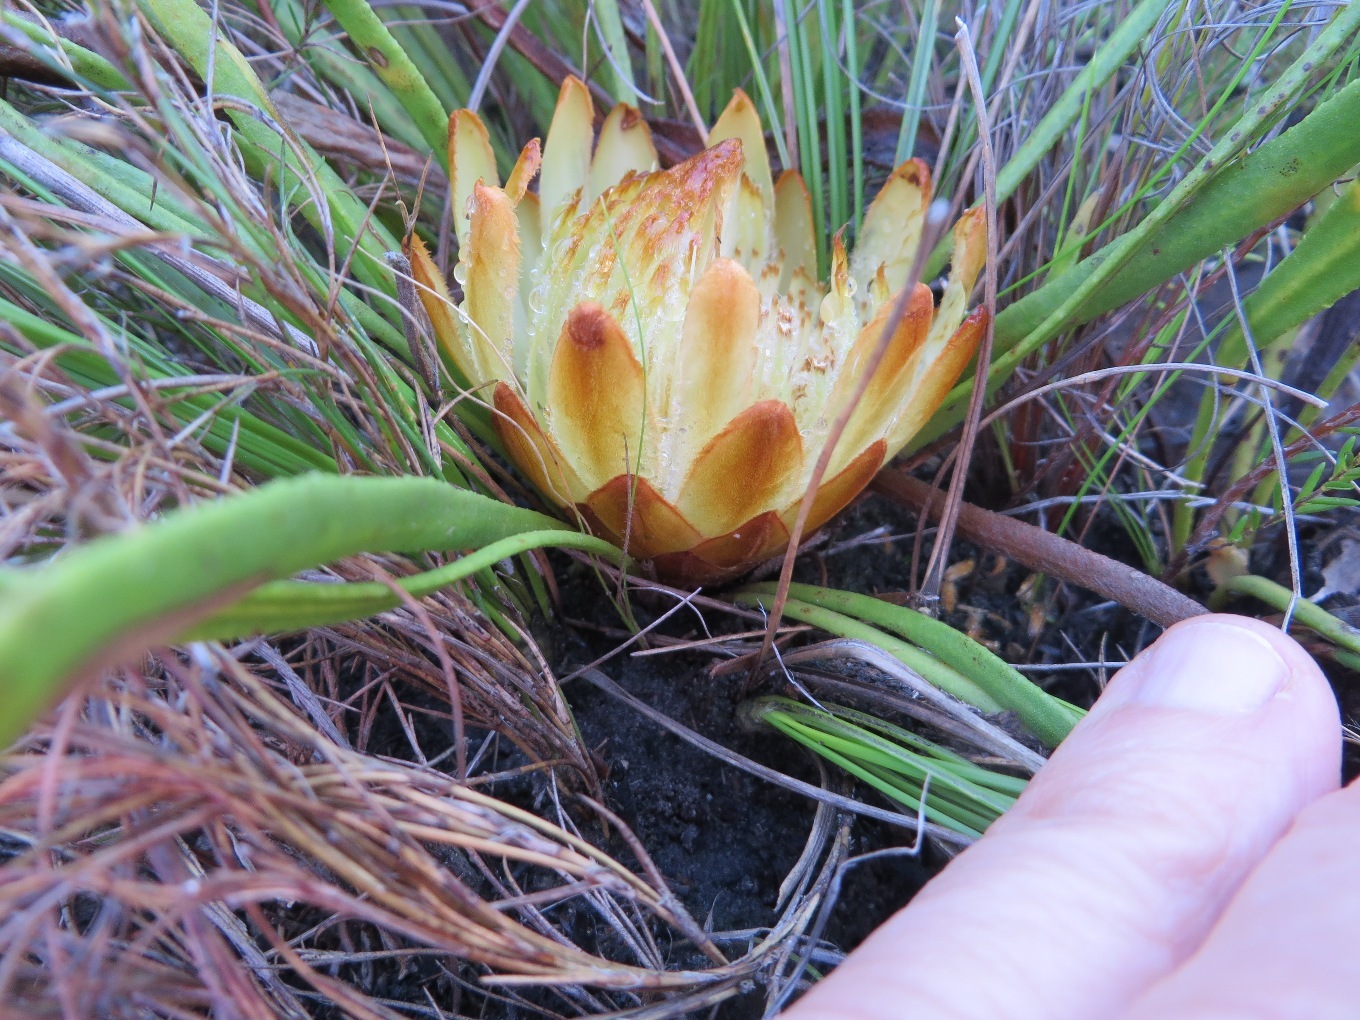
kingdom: Plantae
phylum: Tracheophyta
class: Magnoliopsida
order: Proteales
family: Proteaceae
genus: Protea
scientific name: Protea scabra
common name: Sandpaper-leaf sugarbush
